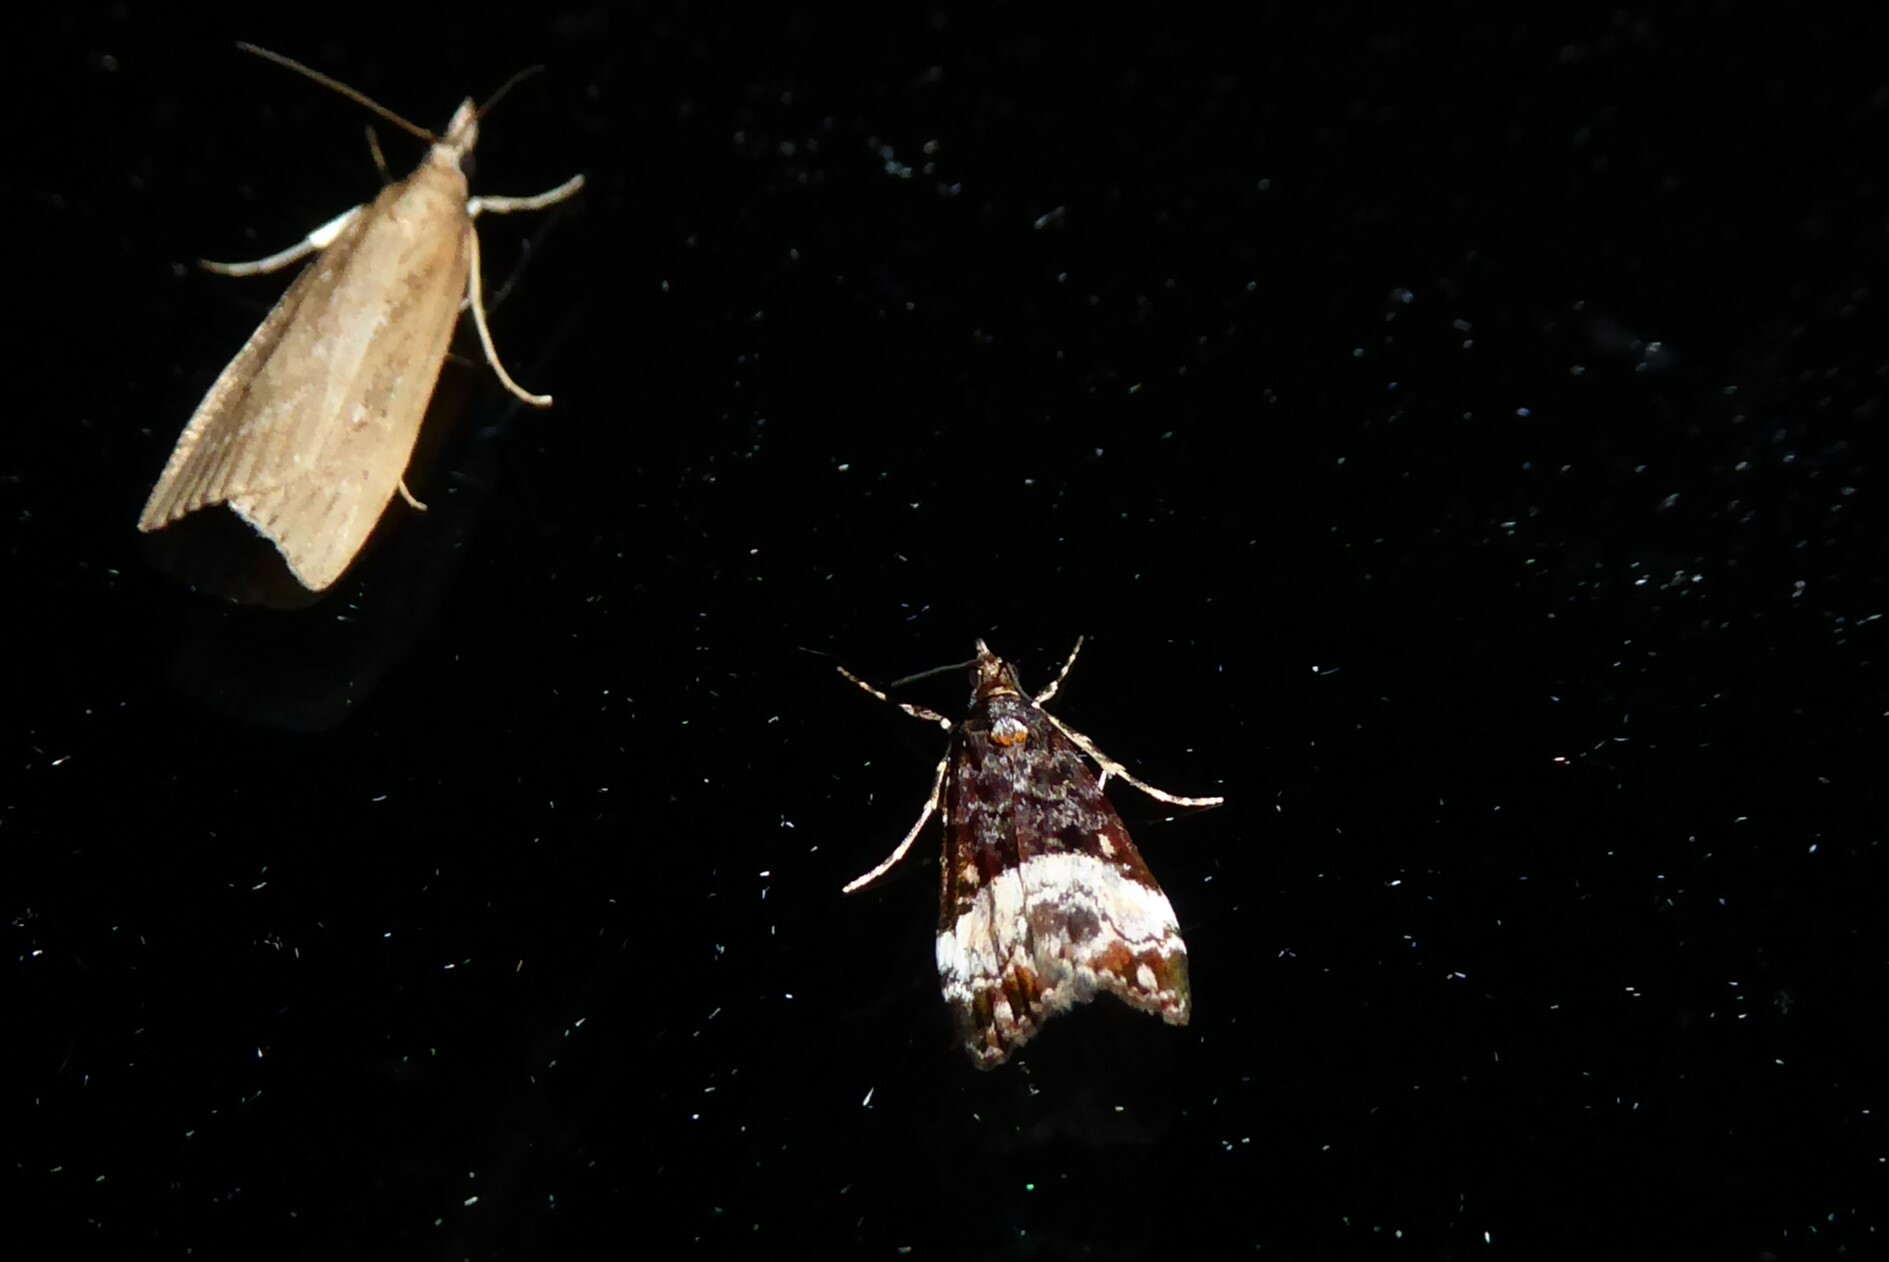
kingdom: Animalia
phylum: Arthropoda
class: Insecta
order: Lepidoptera
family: Crambidae
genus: Scoparia
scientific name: Scoparia minusculalis
